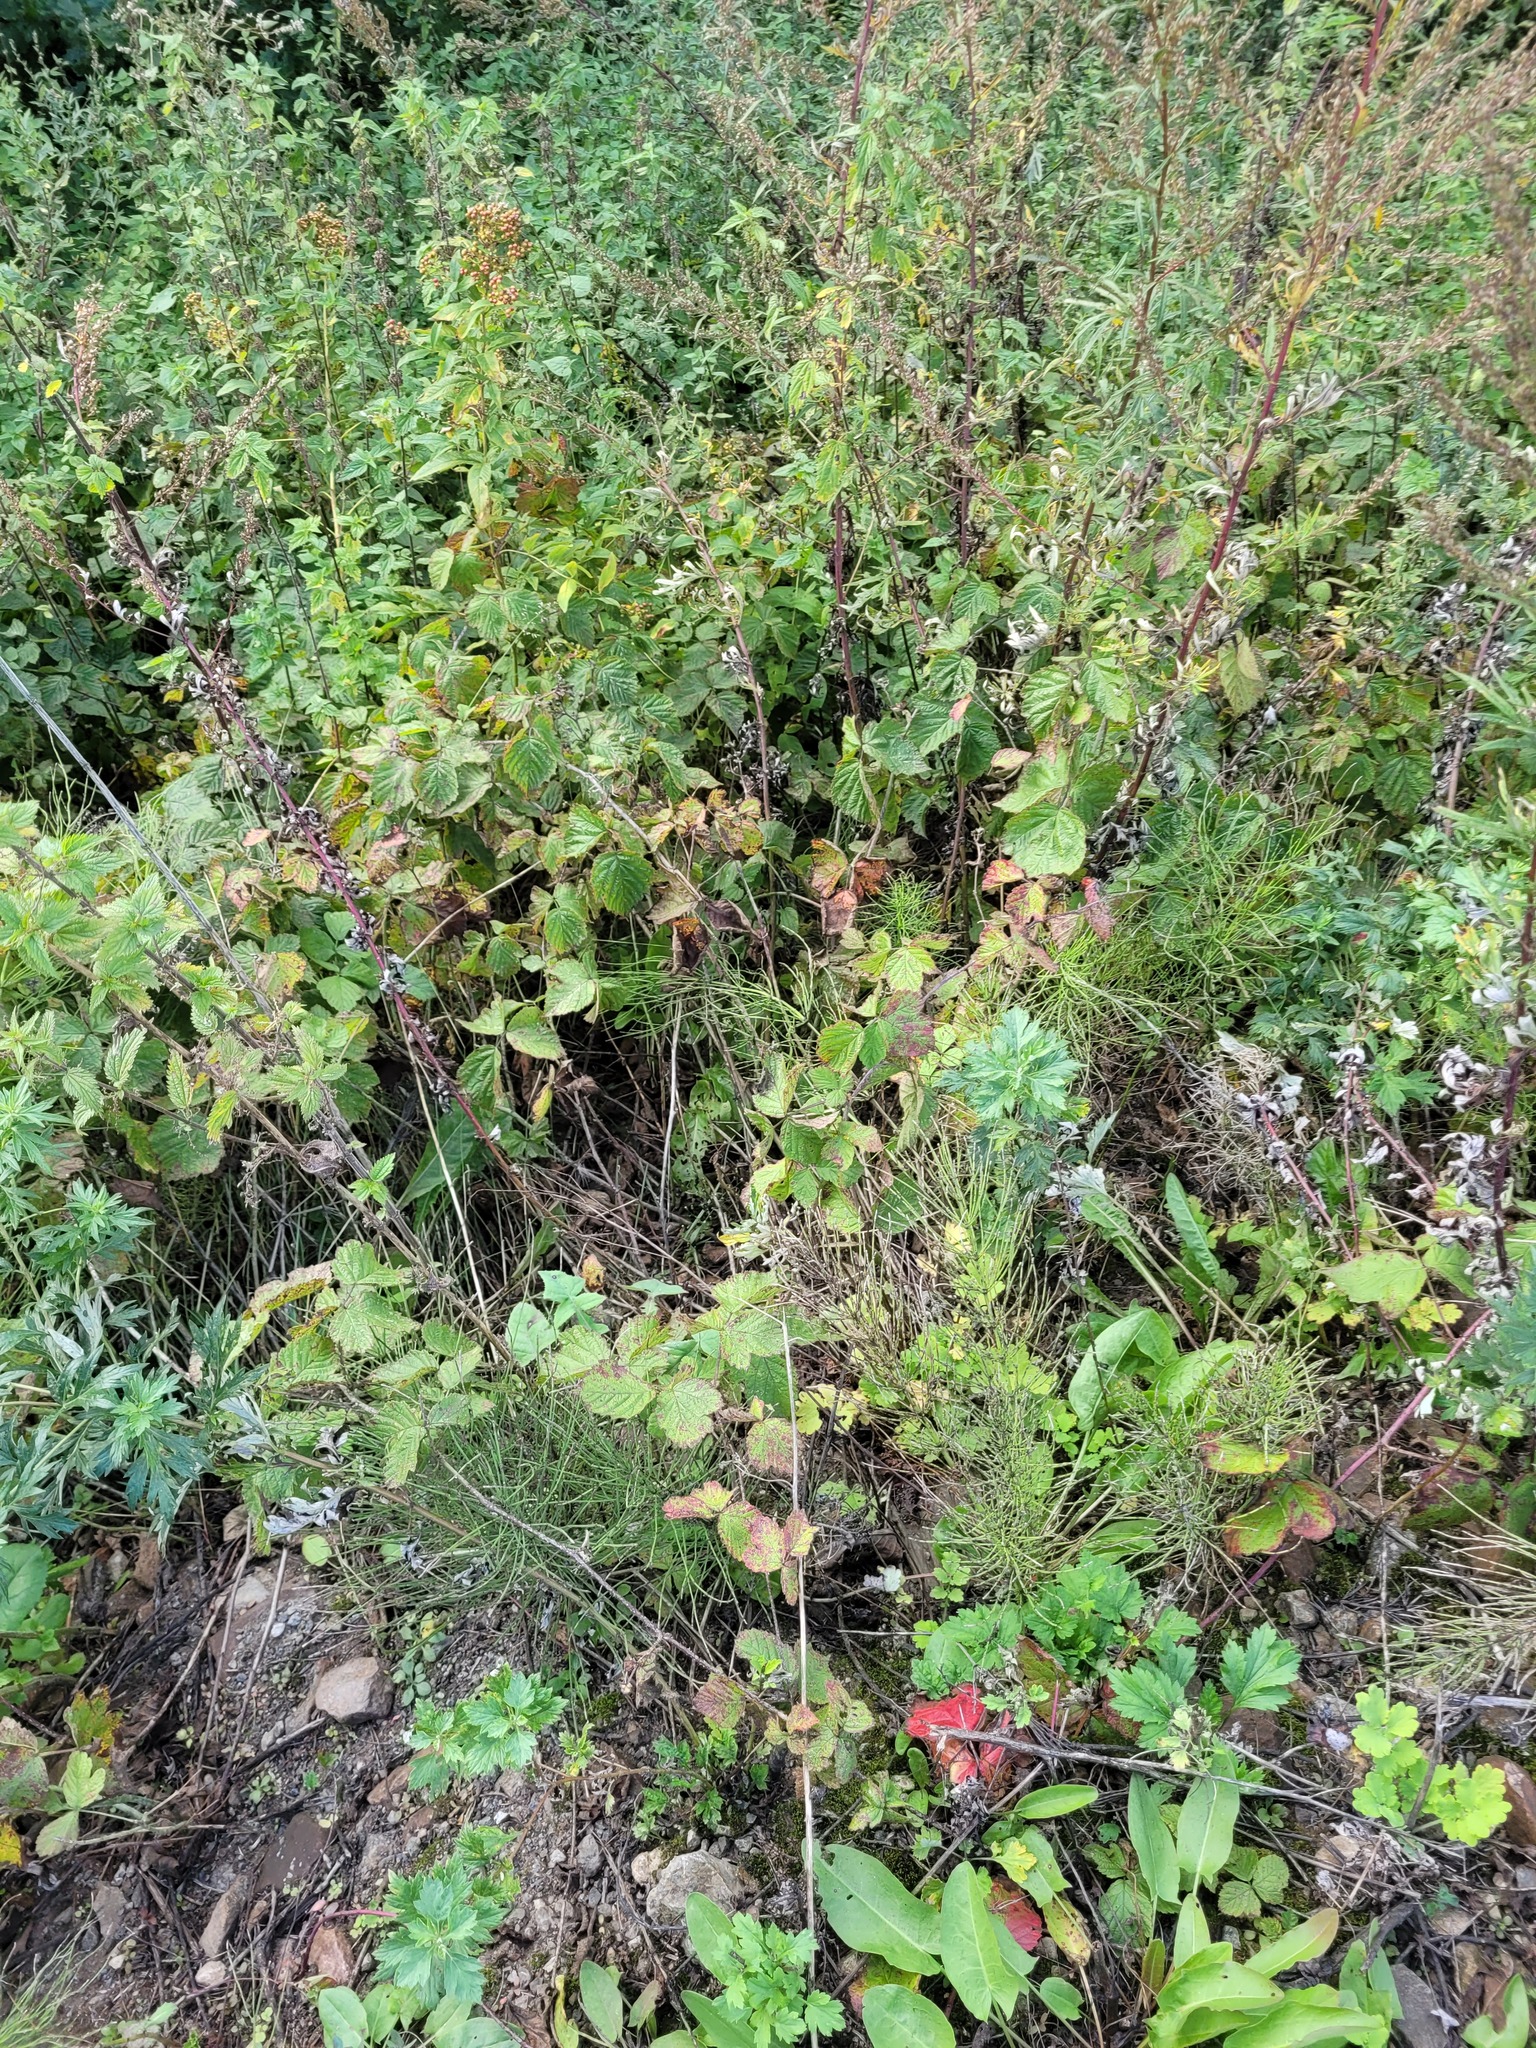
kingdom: Plantae
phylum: Tracheophyta
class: Magnoliopsida
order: Rosales
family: Rosaceae
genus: Rubus
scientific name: Rubus caesius
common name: Dewberry
